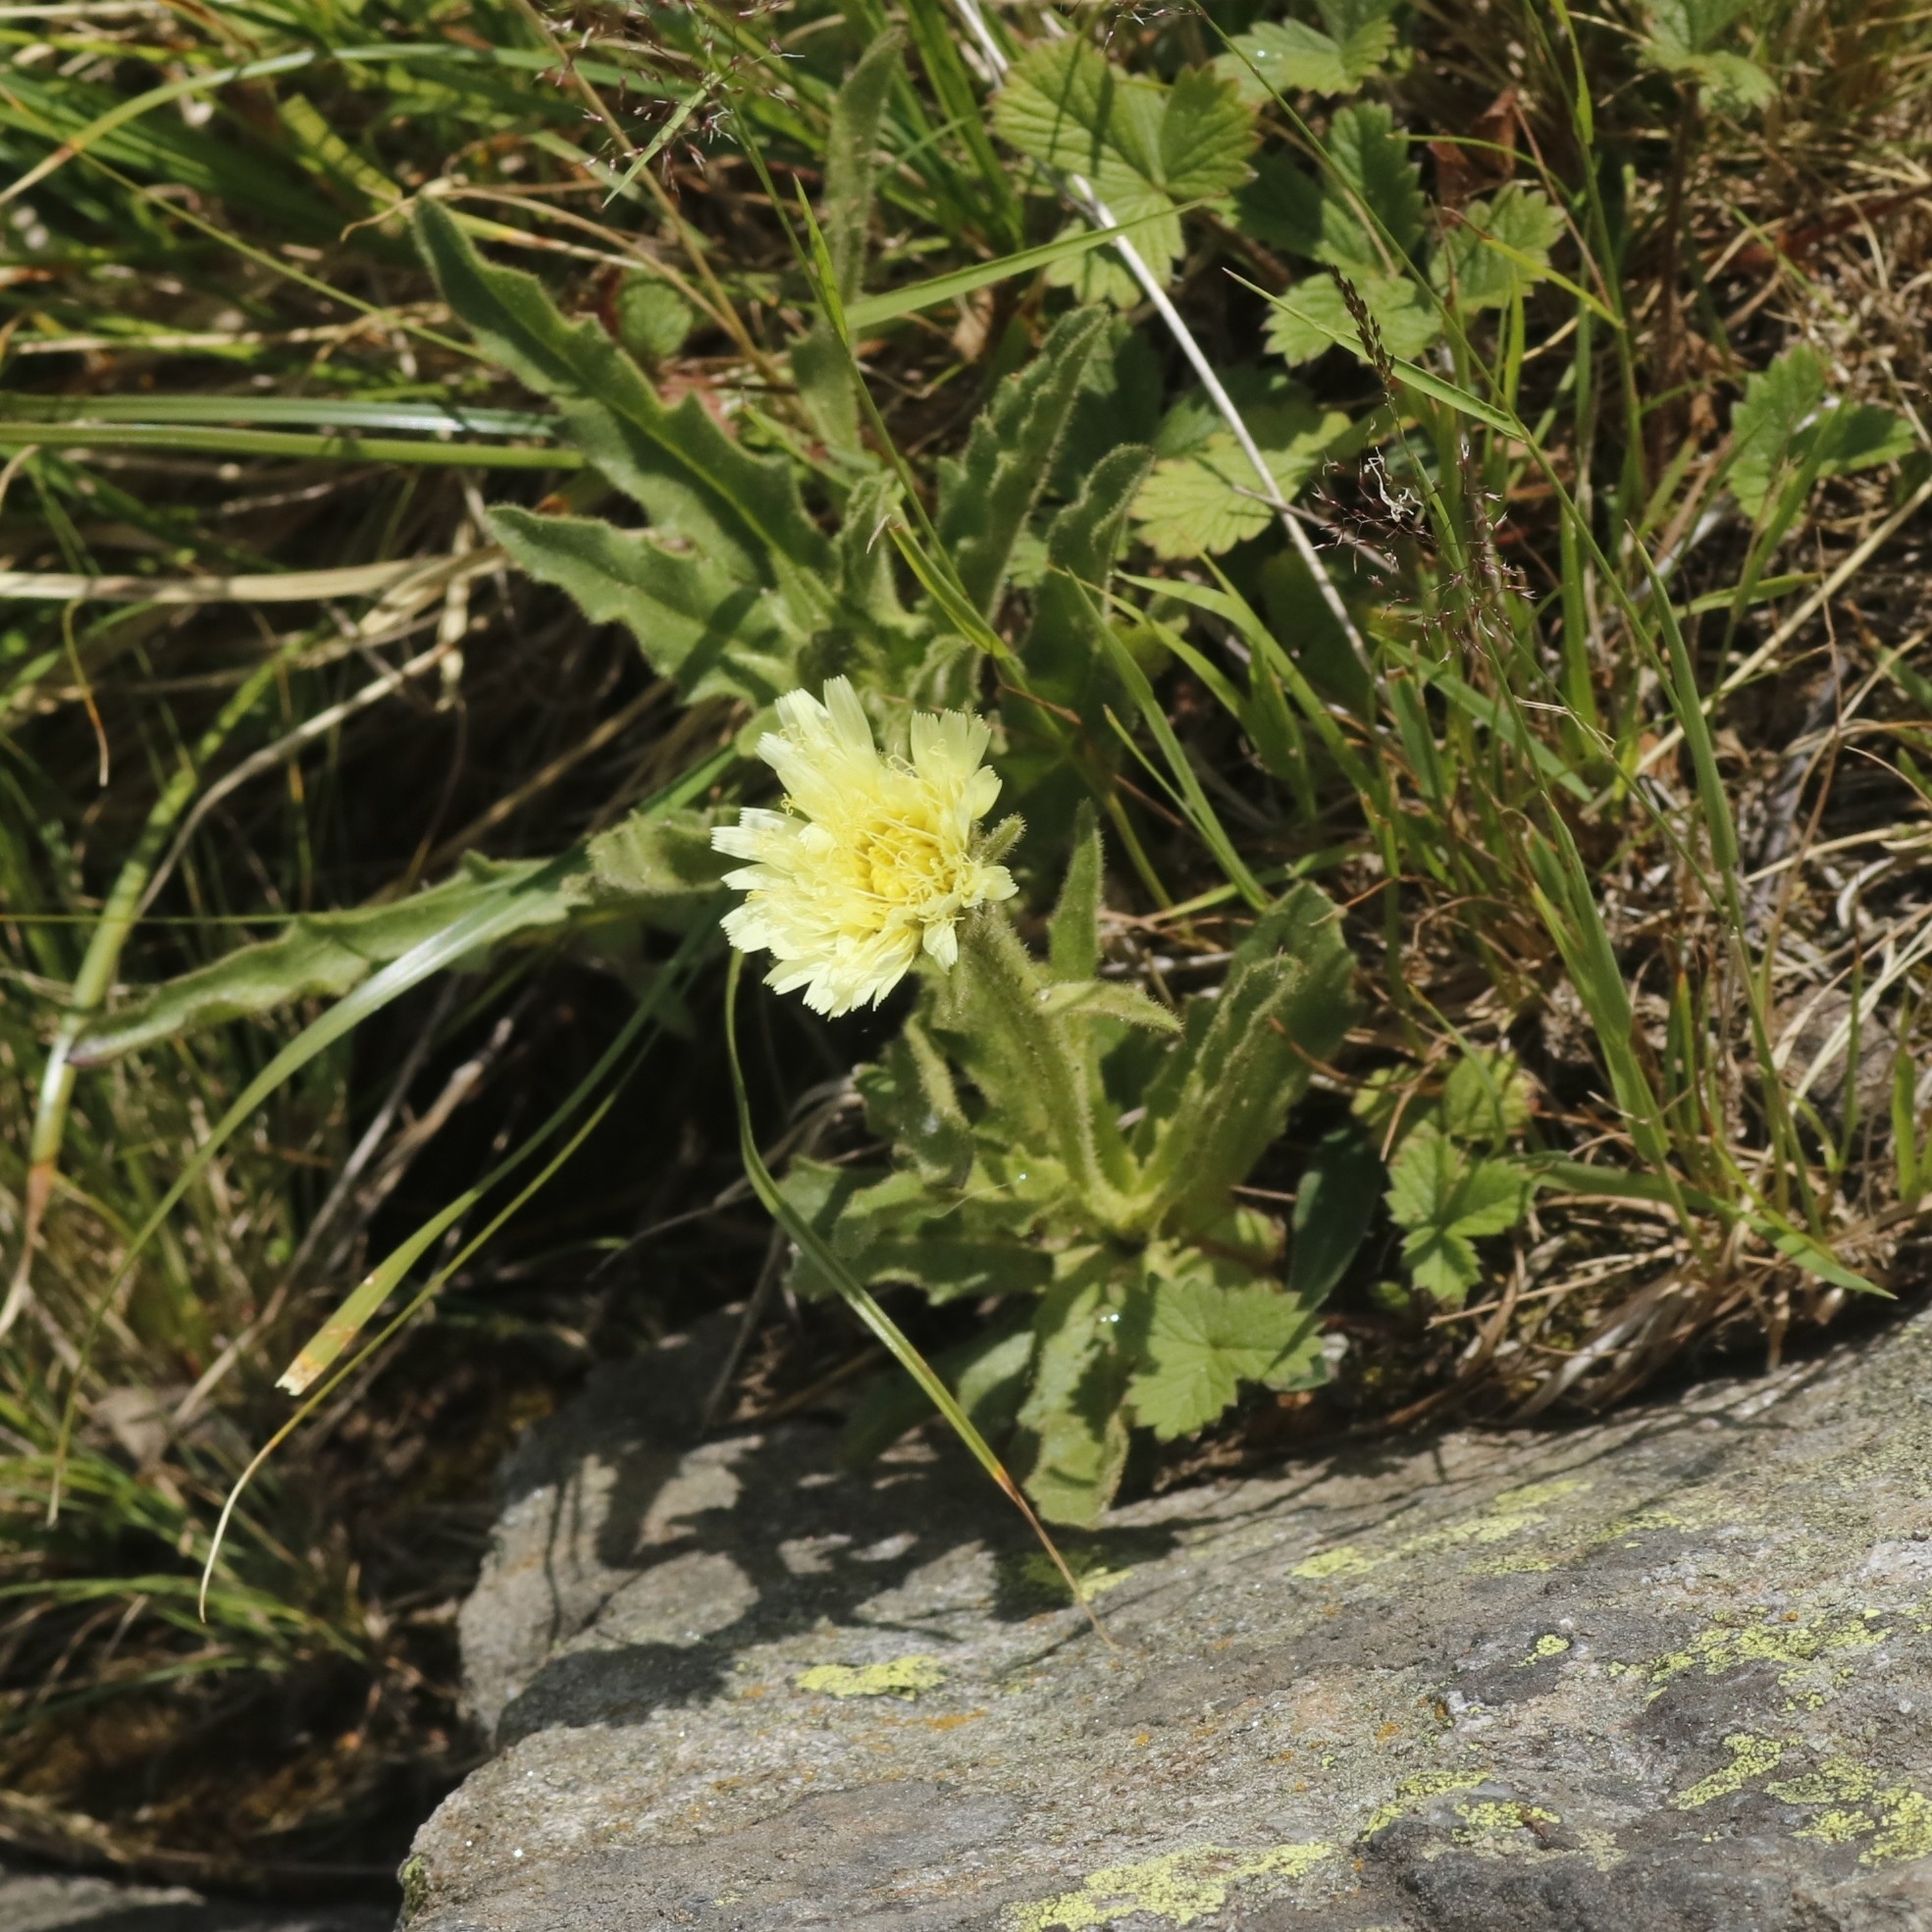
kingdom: Plantae
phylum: Tracheophyta
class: Magnoliopsida
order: Asterales
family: Asteraceae
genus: Schlagintweitia
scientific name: Schlagintweitia intybacea
